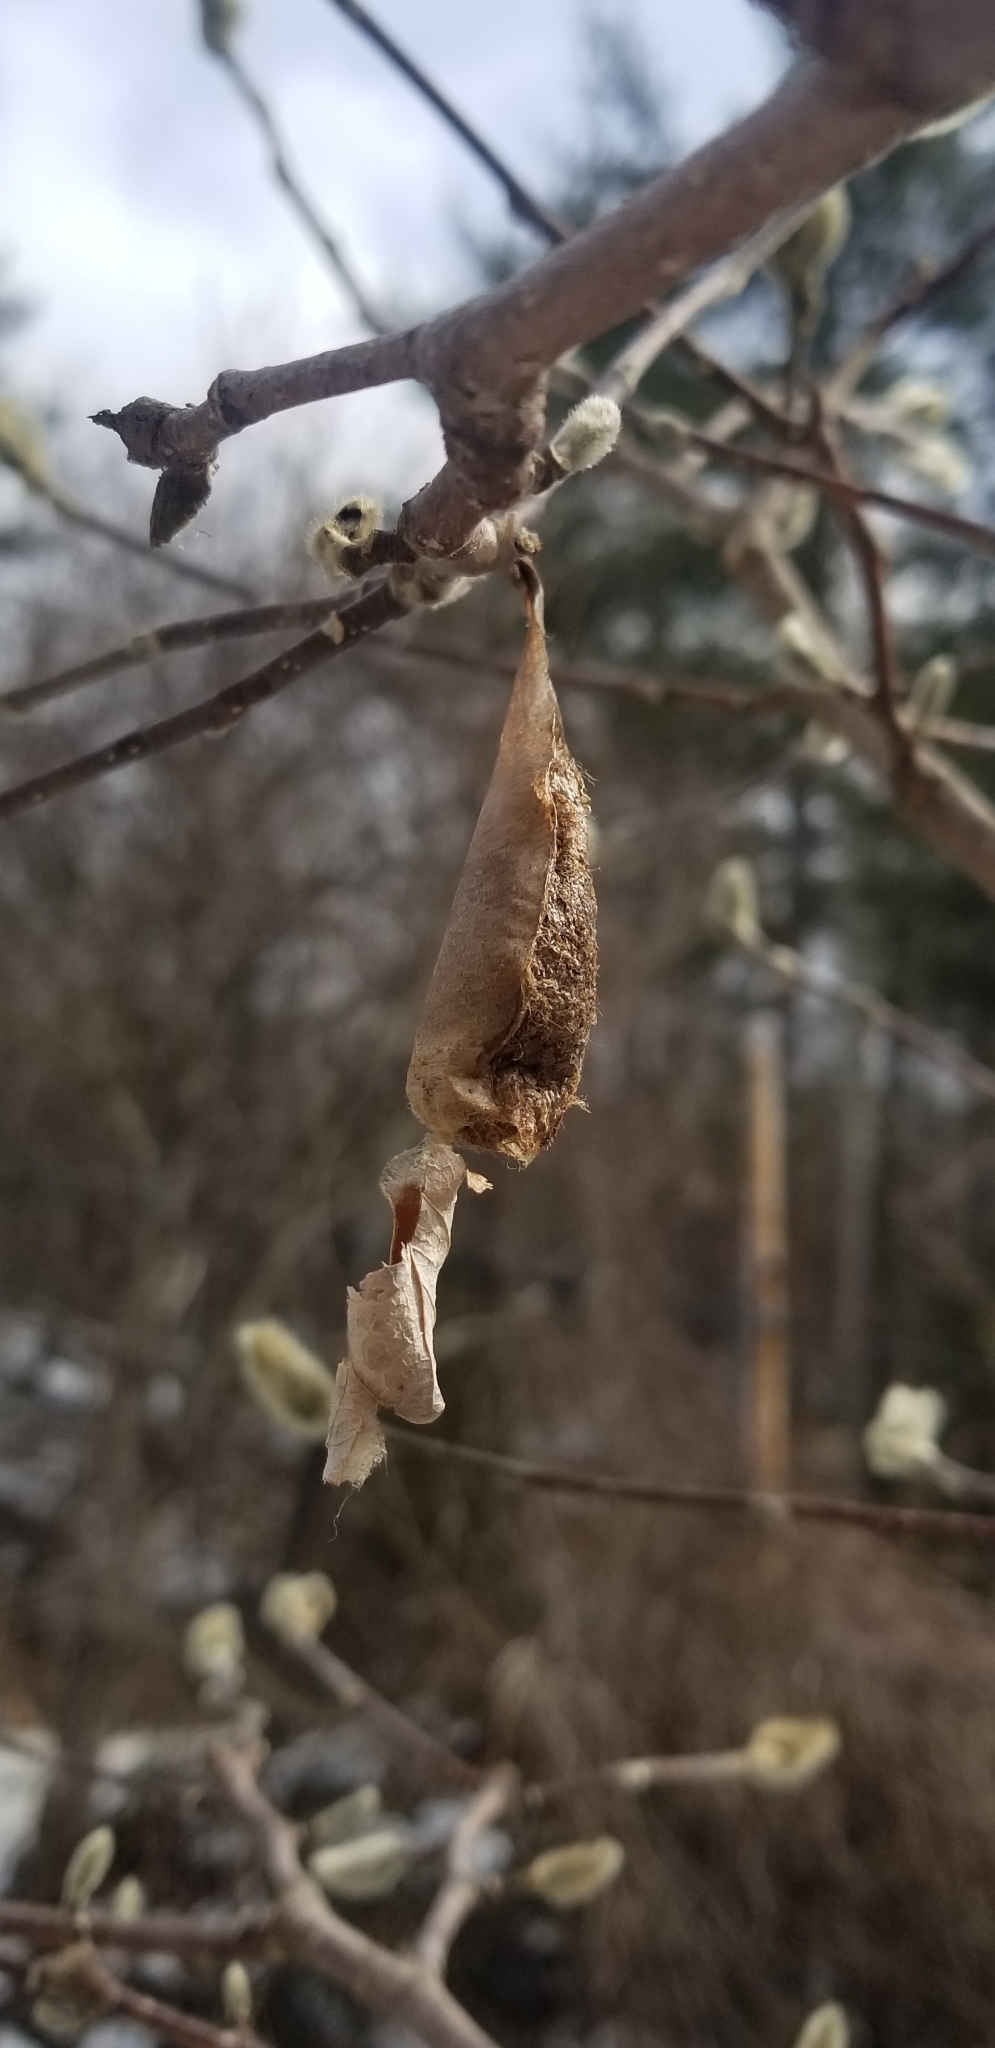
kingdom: Animalia
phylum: Arthropoda
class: Insecta
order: Lepidoptera
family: Saturniidae
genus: Callosamia
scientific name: Callosamia promethea
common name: Promethea silkmoth
